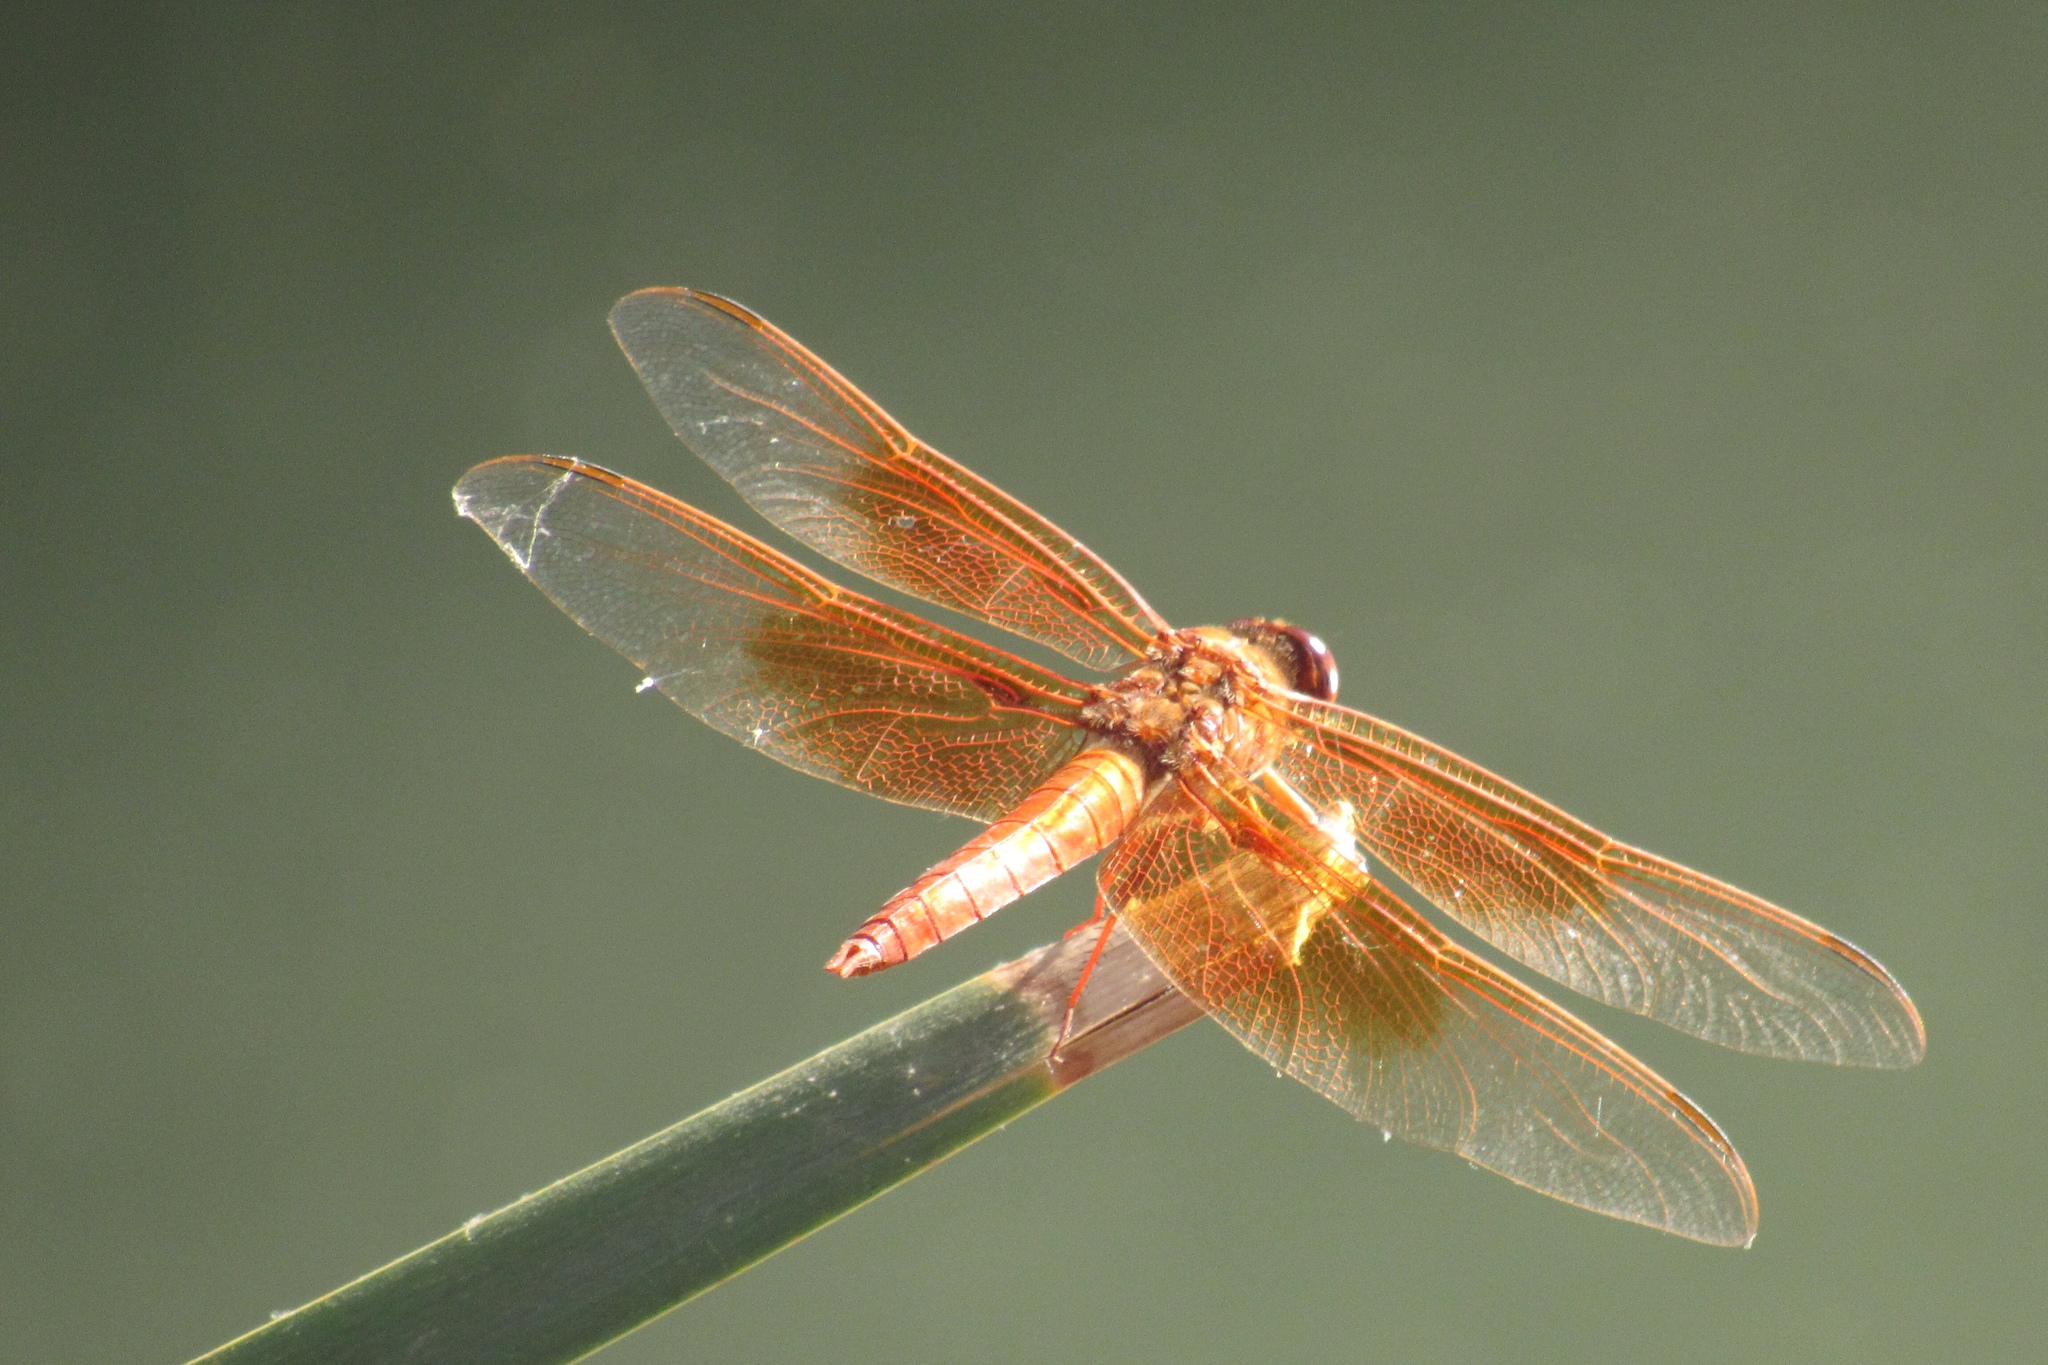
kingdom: Animalia
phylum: Arthropoda
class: Insecta
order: Odonata
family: Libellulidae
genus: Libellula
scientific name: Libellula saturata
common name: Flame skimmer
